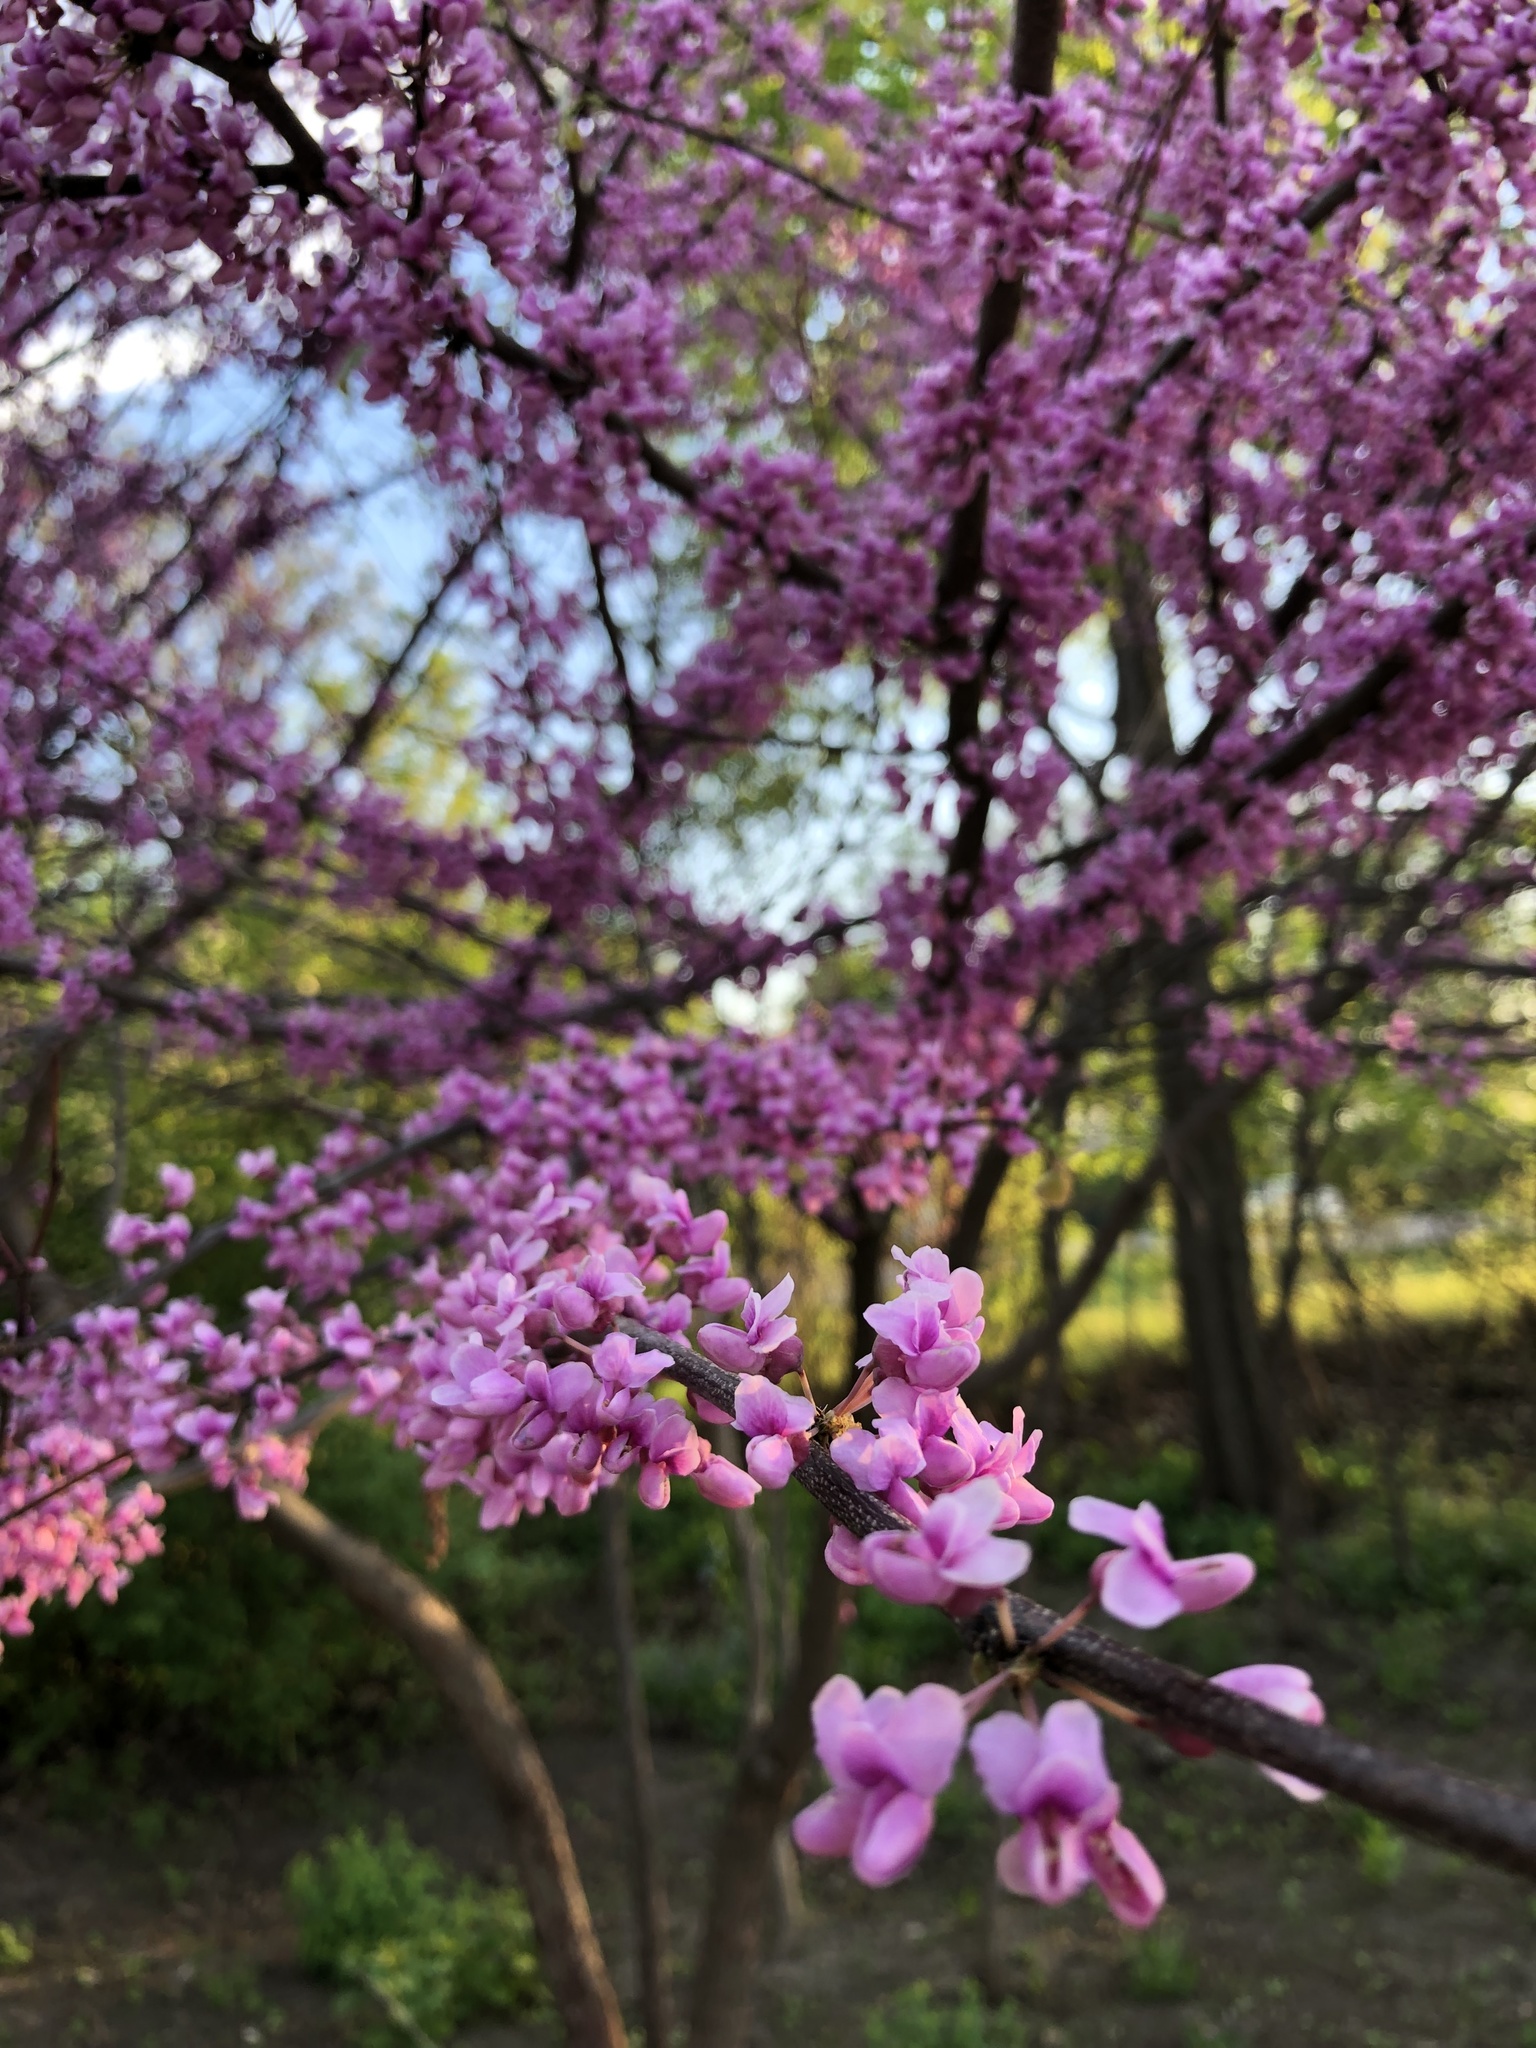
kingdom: Plantae
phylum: Tracheophyta
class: Magnoliopsida
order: Fabales
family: Fabaceae
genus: Cercis
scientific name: Cercis canadensis
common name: Eastern redbud
